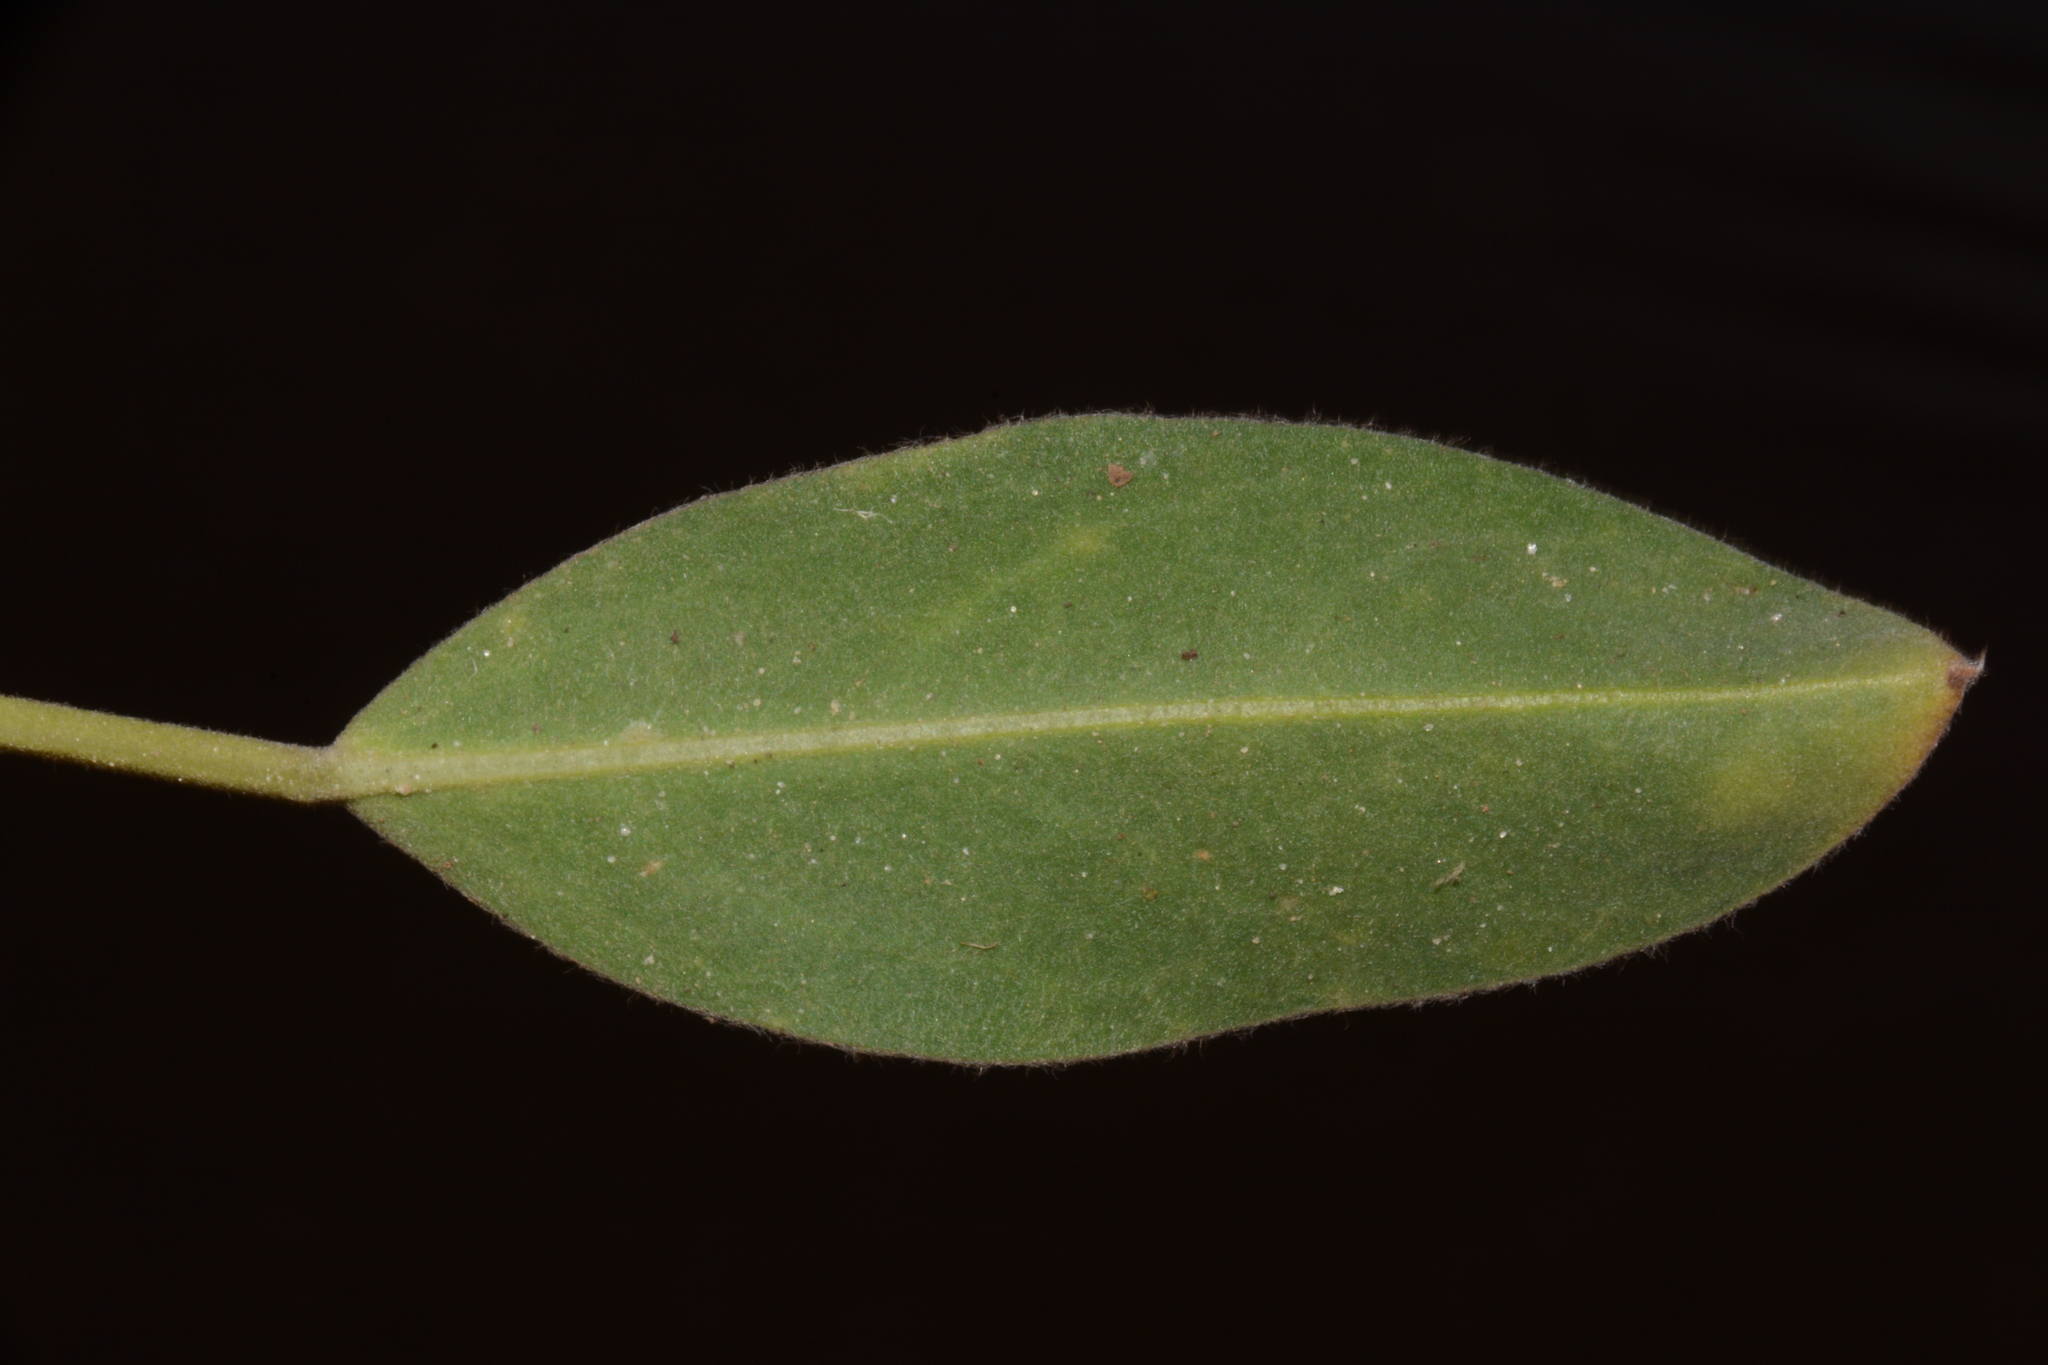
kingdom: Plantae
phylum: Tracheophyta
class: Magnoliopsida
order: Fabales
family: Fabaceae
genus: Lupinus
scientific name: Lupinus diffusus
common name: Oak ridge lupine
